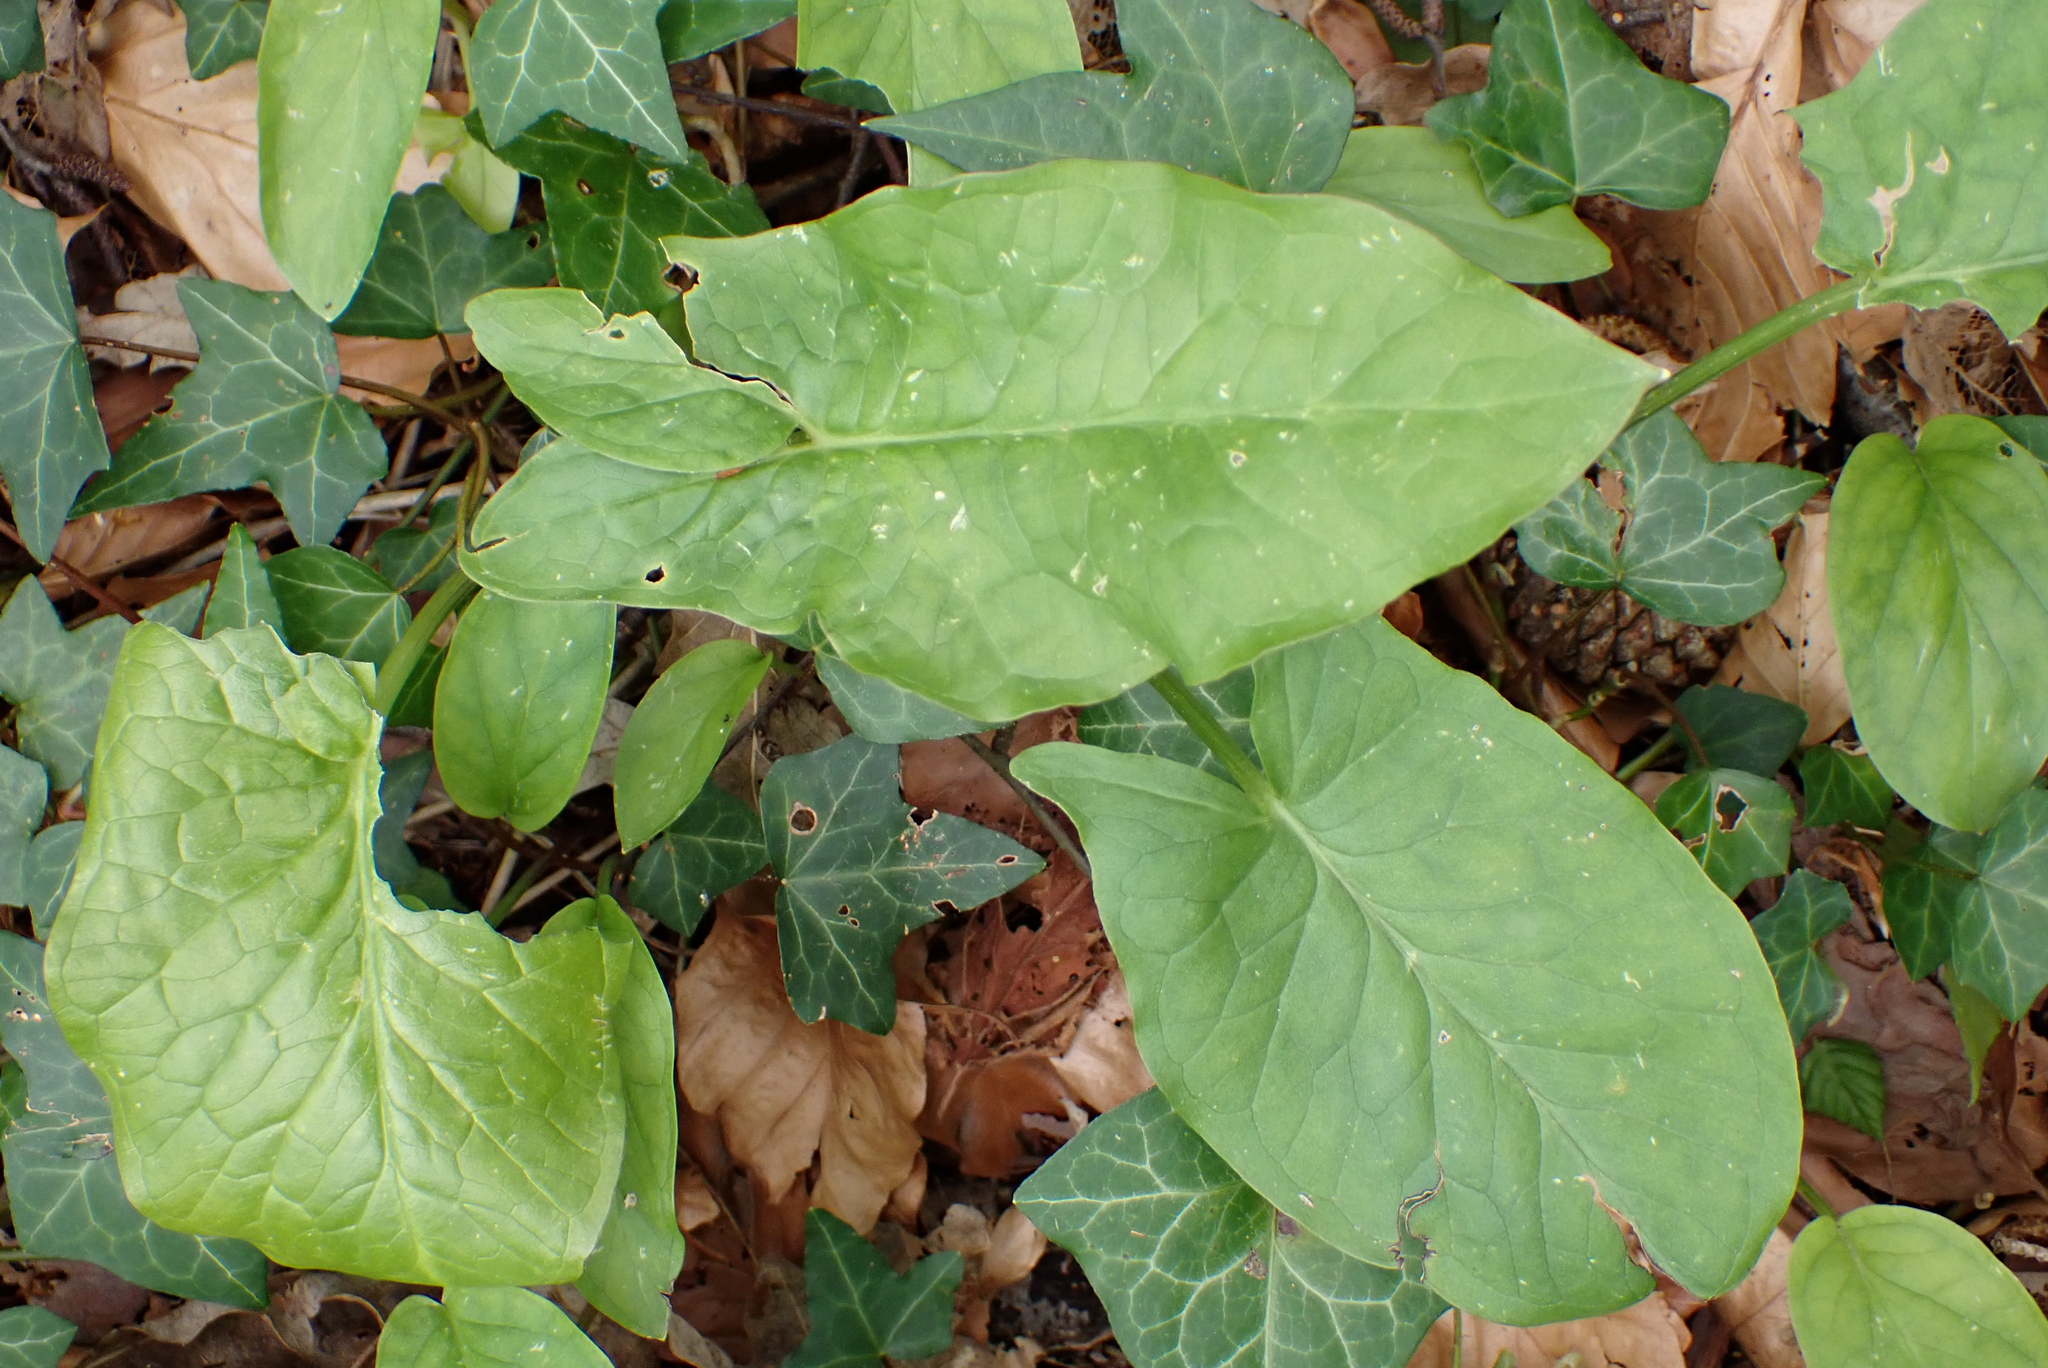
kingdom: Plantae
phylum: Tracheophyta
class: Liliopsida
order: Alismatales
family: Araceae
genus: Arum
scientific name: Arum maculatum
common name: Lords-and-ladies
